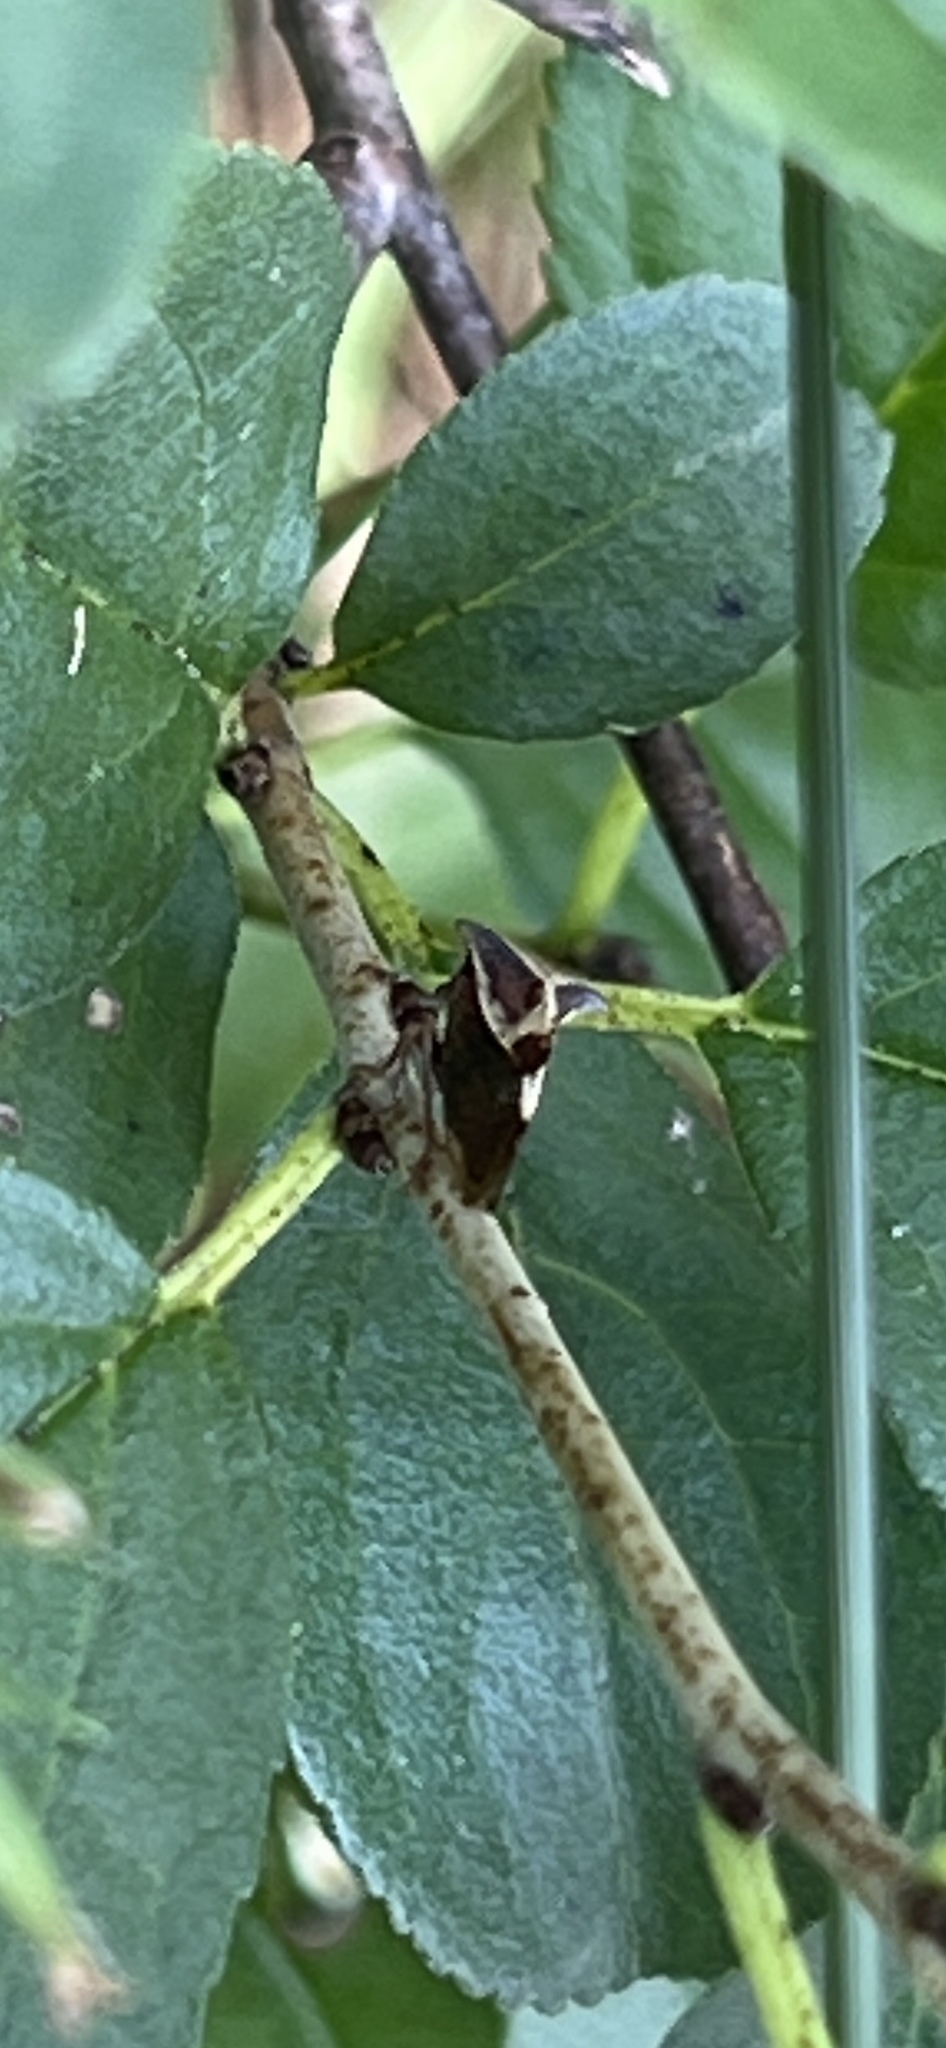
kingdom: Animalia
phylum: Arthropoda
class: Insecta
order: Hemiptera
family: Membracidae
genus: Stictocephala
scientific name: Stictocephala diceros
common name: Two-horned treehopper
